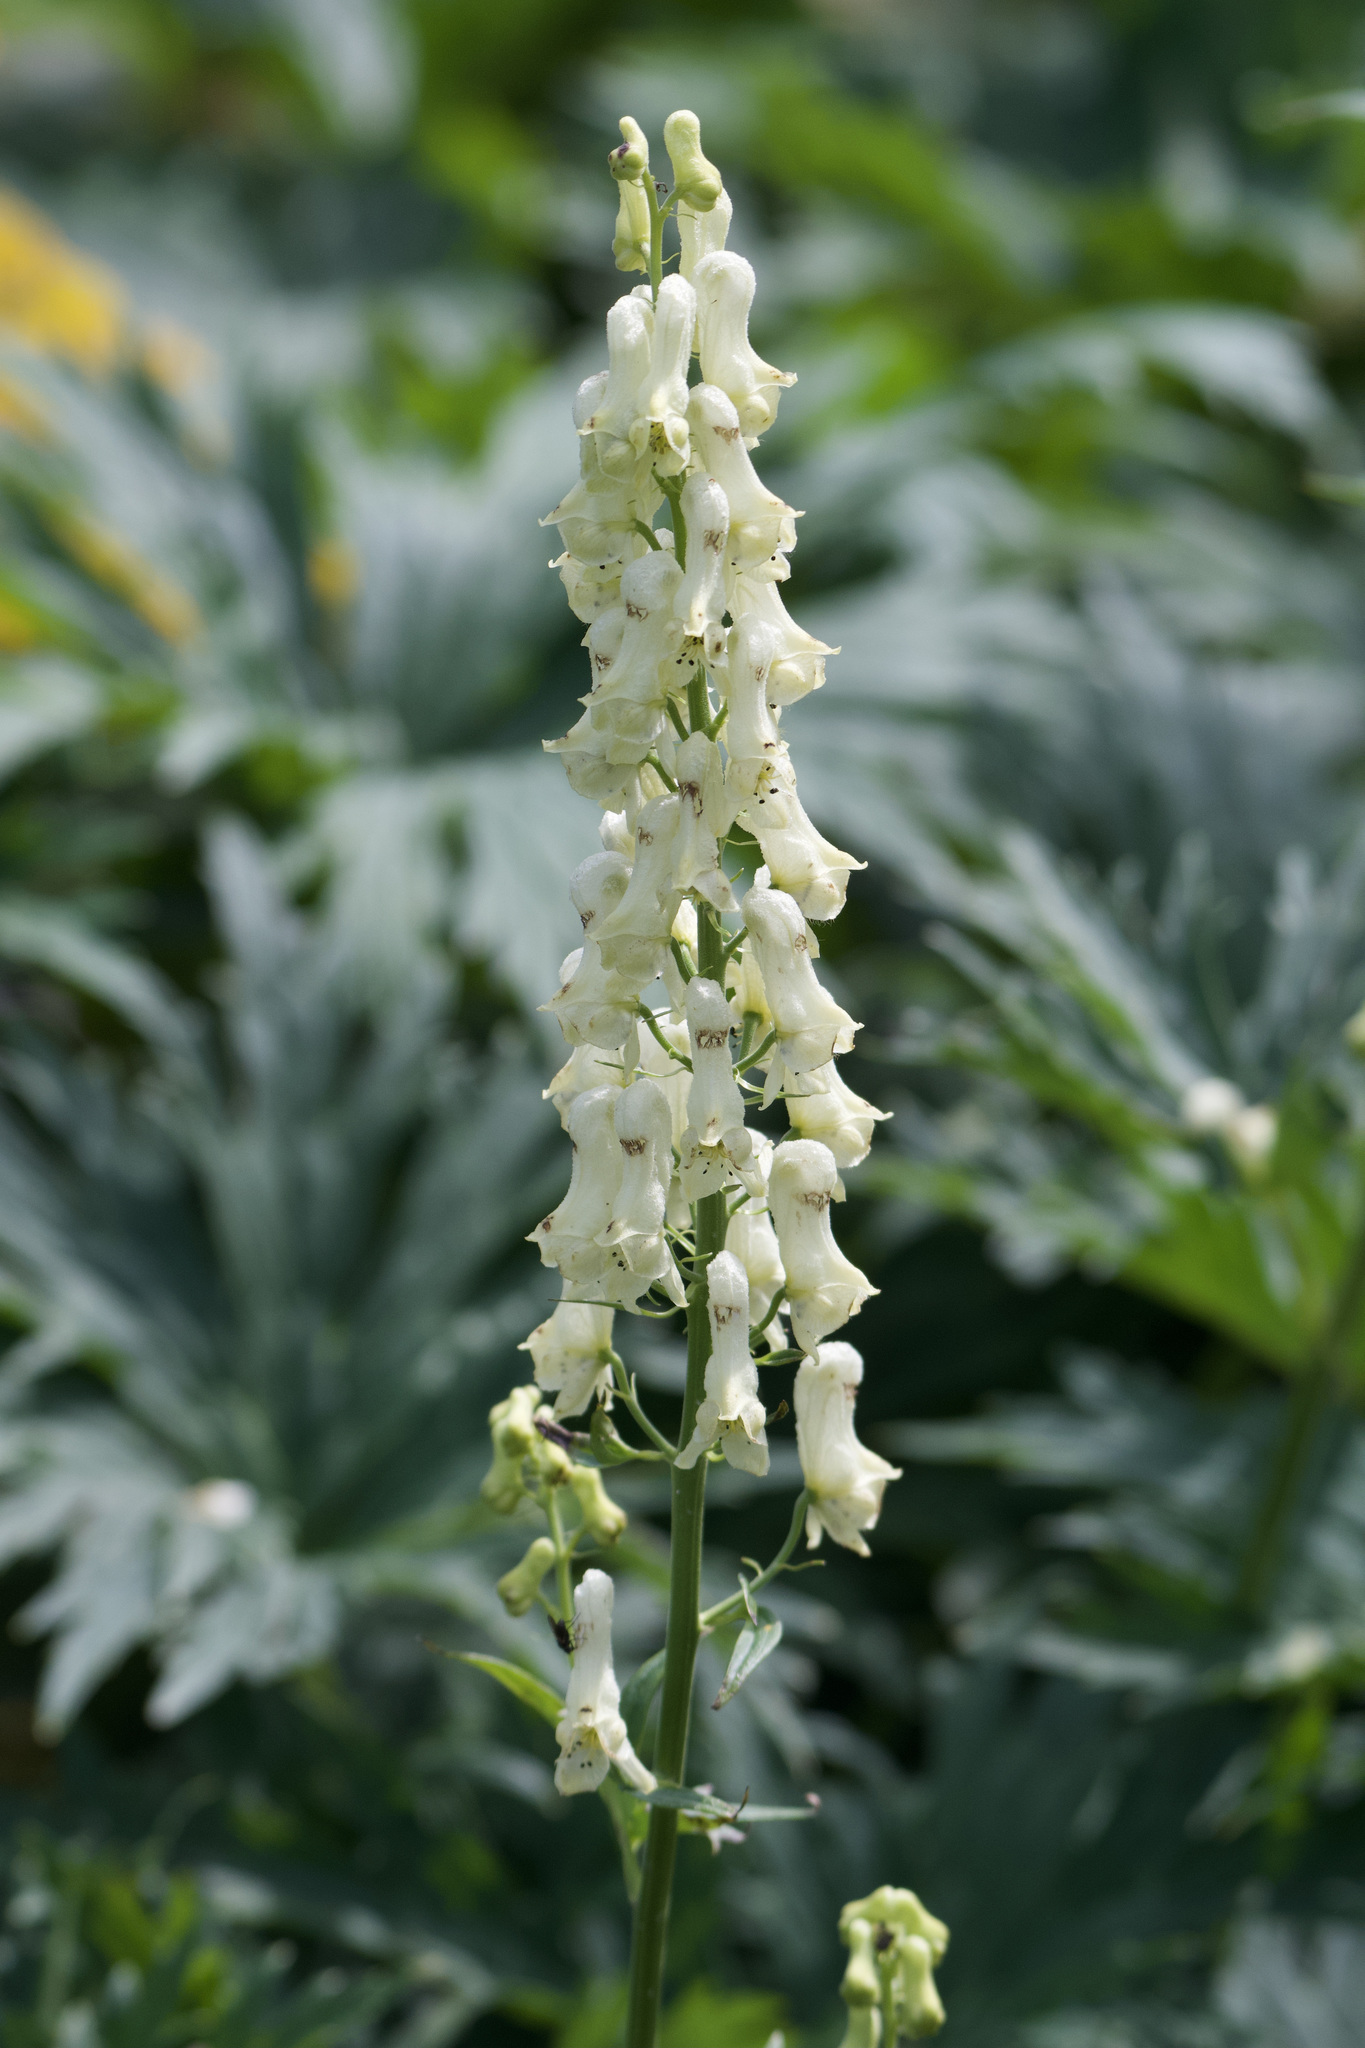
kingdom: Plantae
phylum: Tracheophyta
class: Magnoliopsida
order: Ranunculales
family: Ranunculaceae
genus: Aconitum
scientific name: Aconitum lycoctonum
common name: Wolf's-bane
